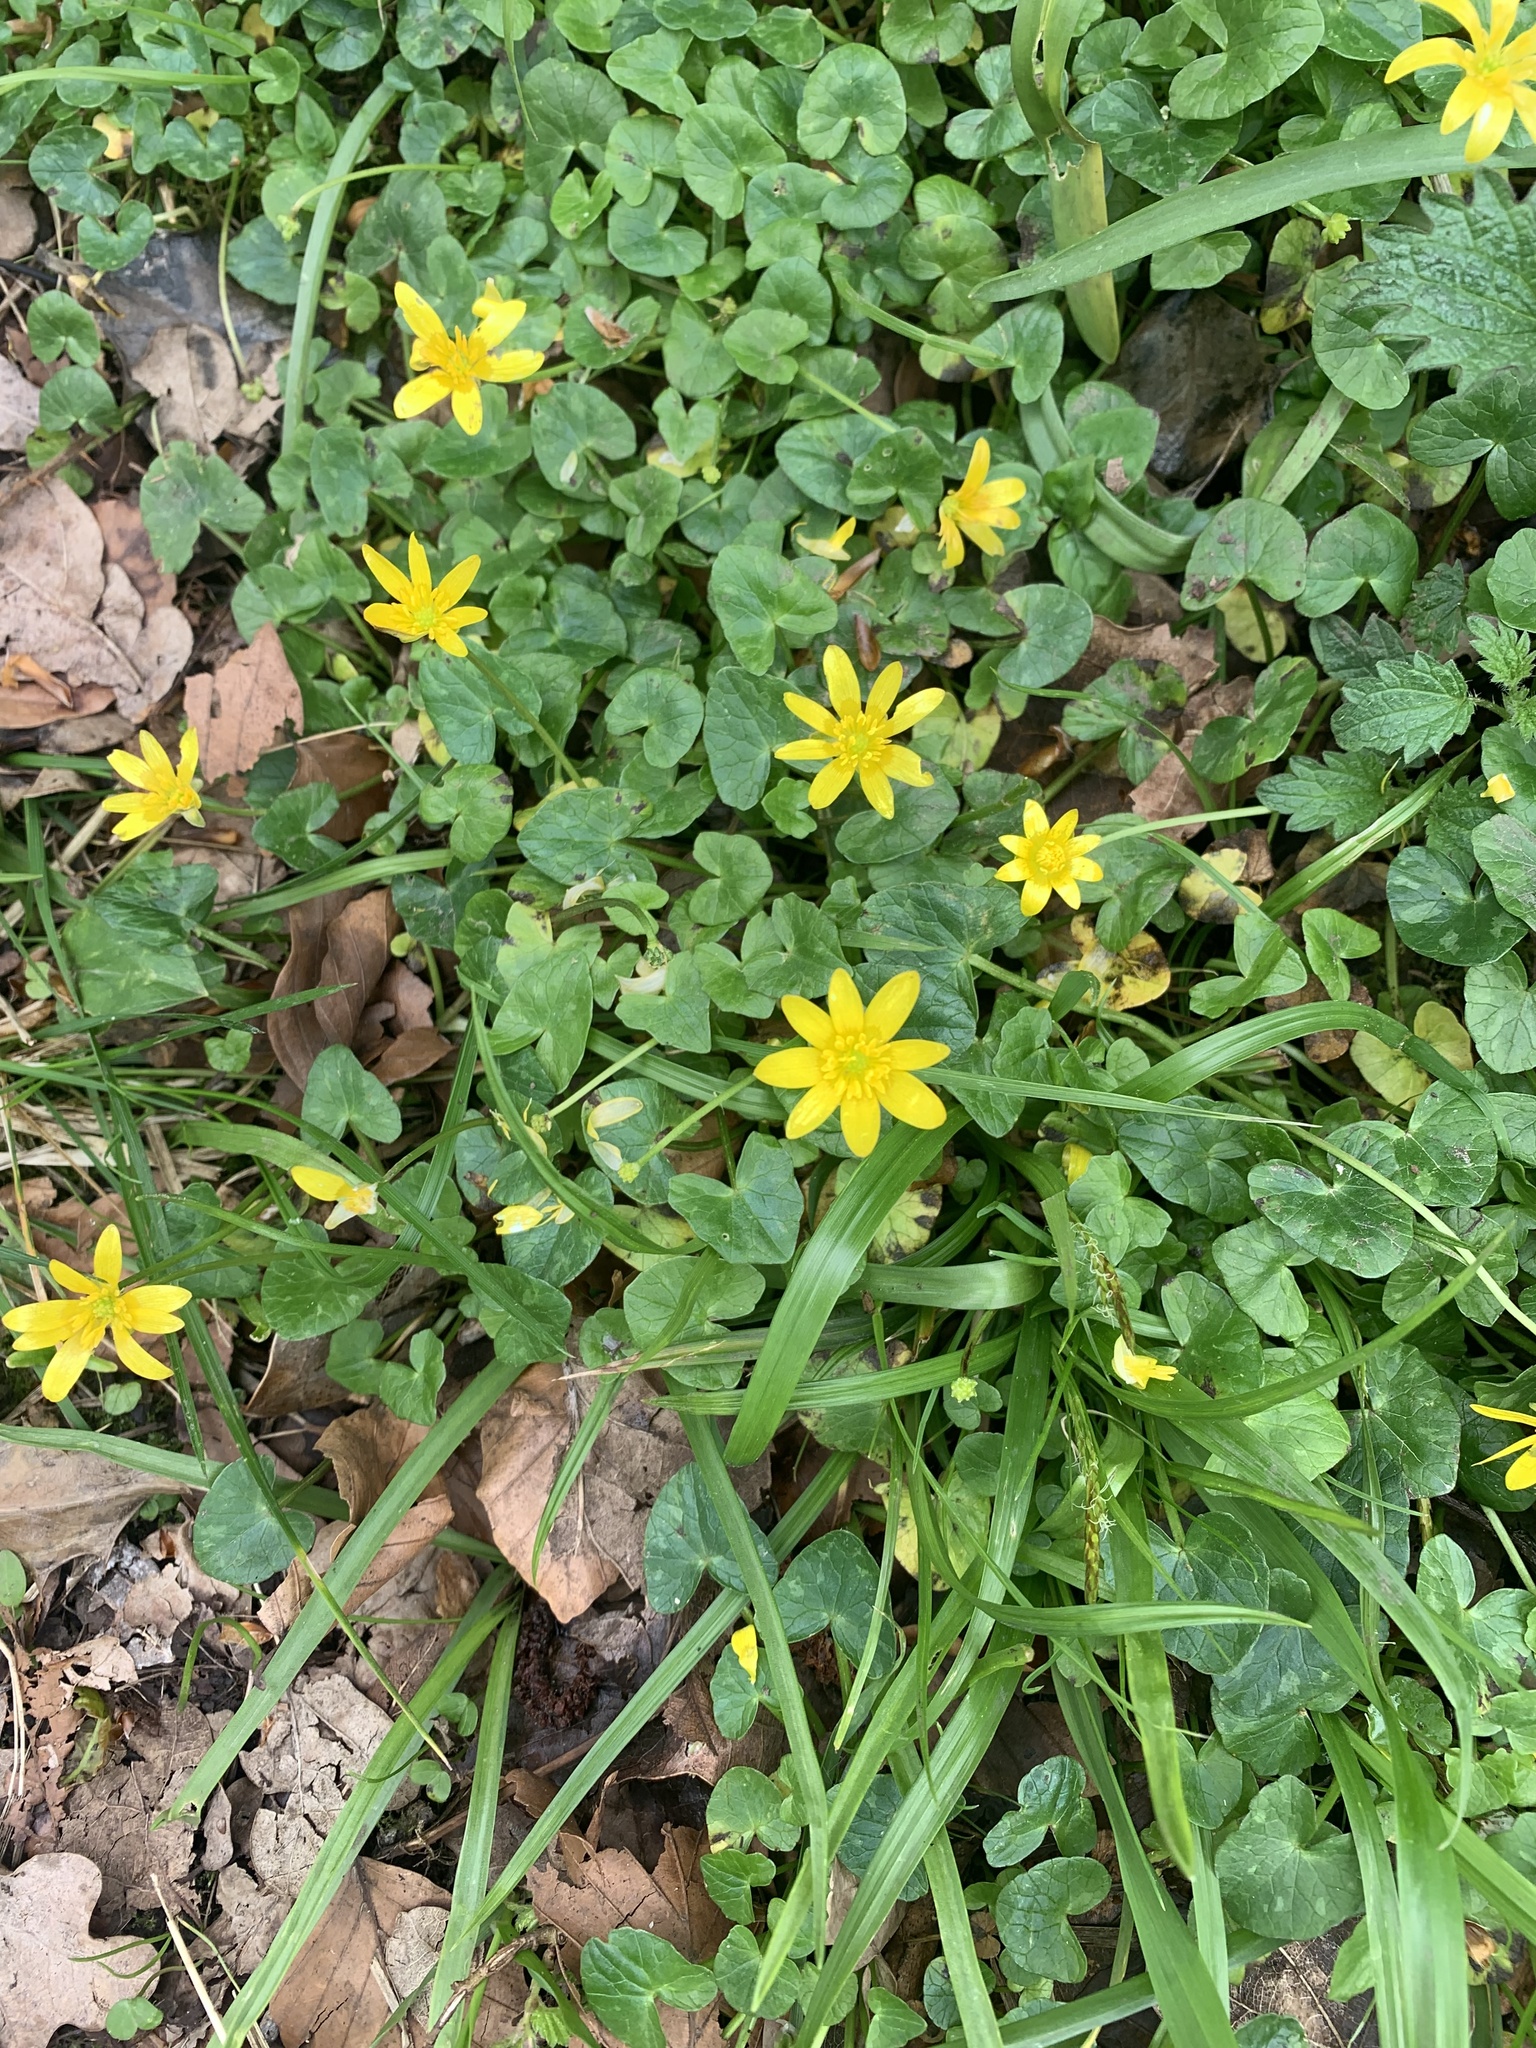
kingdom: Plantae
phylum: Tracheophyta
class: Magnoliopsida
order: Ranunculales
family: Ranunculaceae
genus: Ficaria
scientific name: Ficaria verna
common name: Lesser celandine
